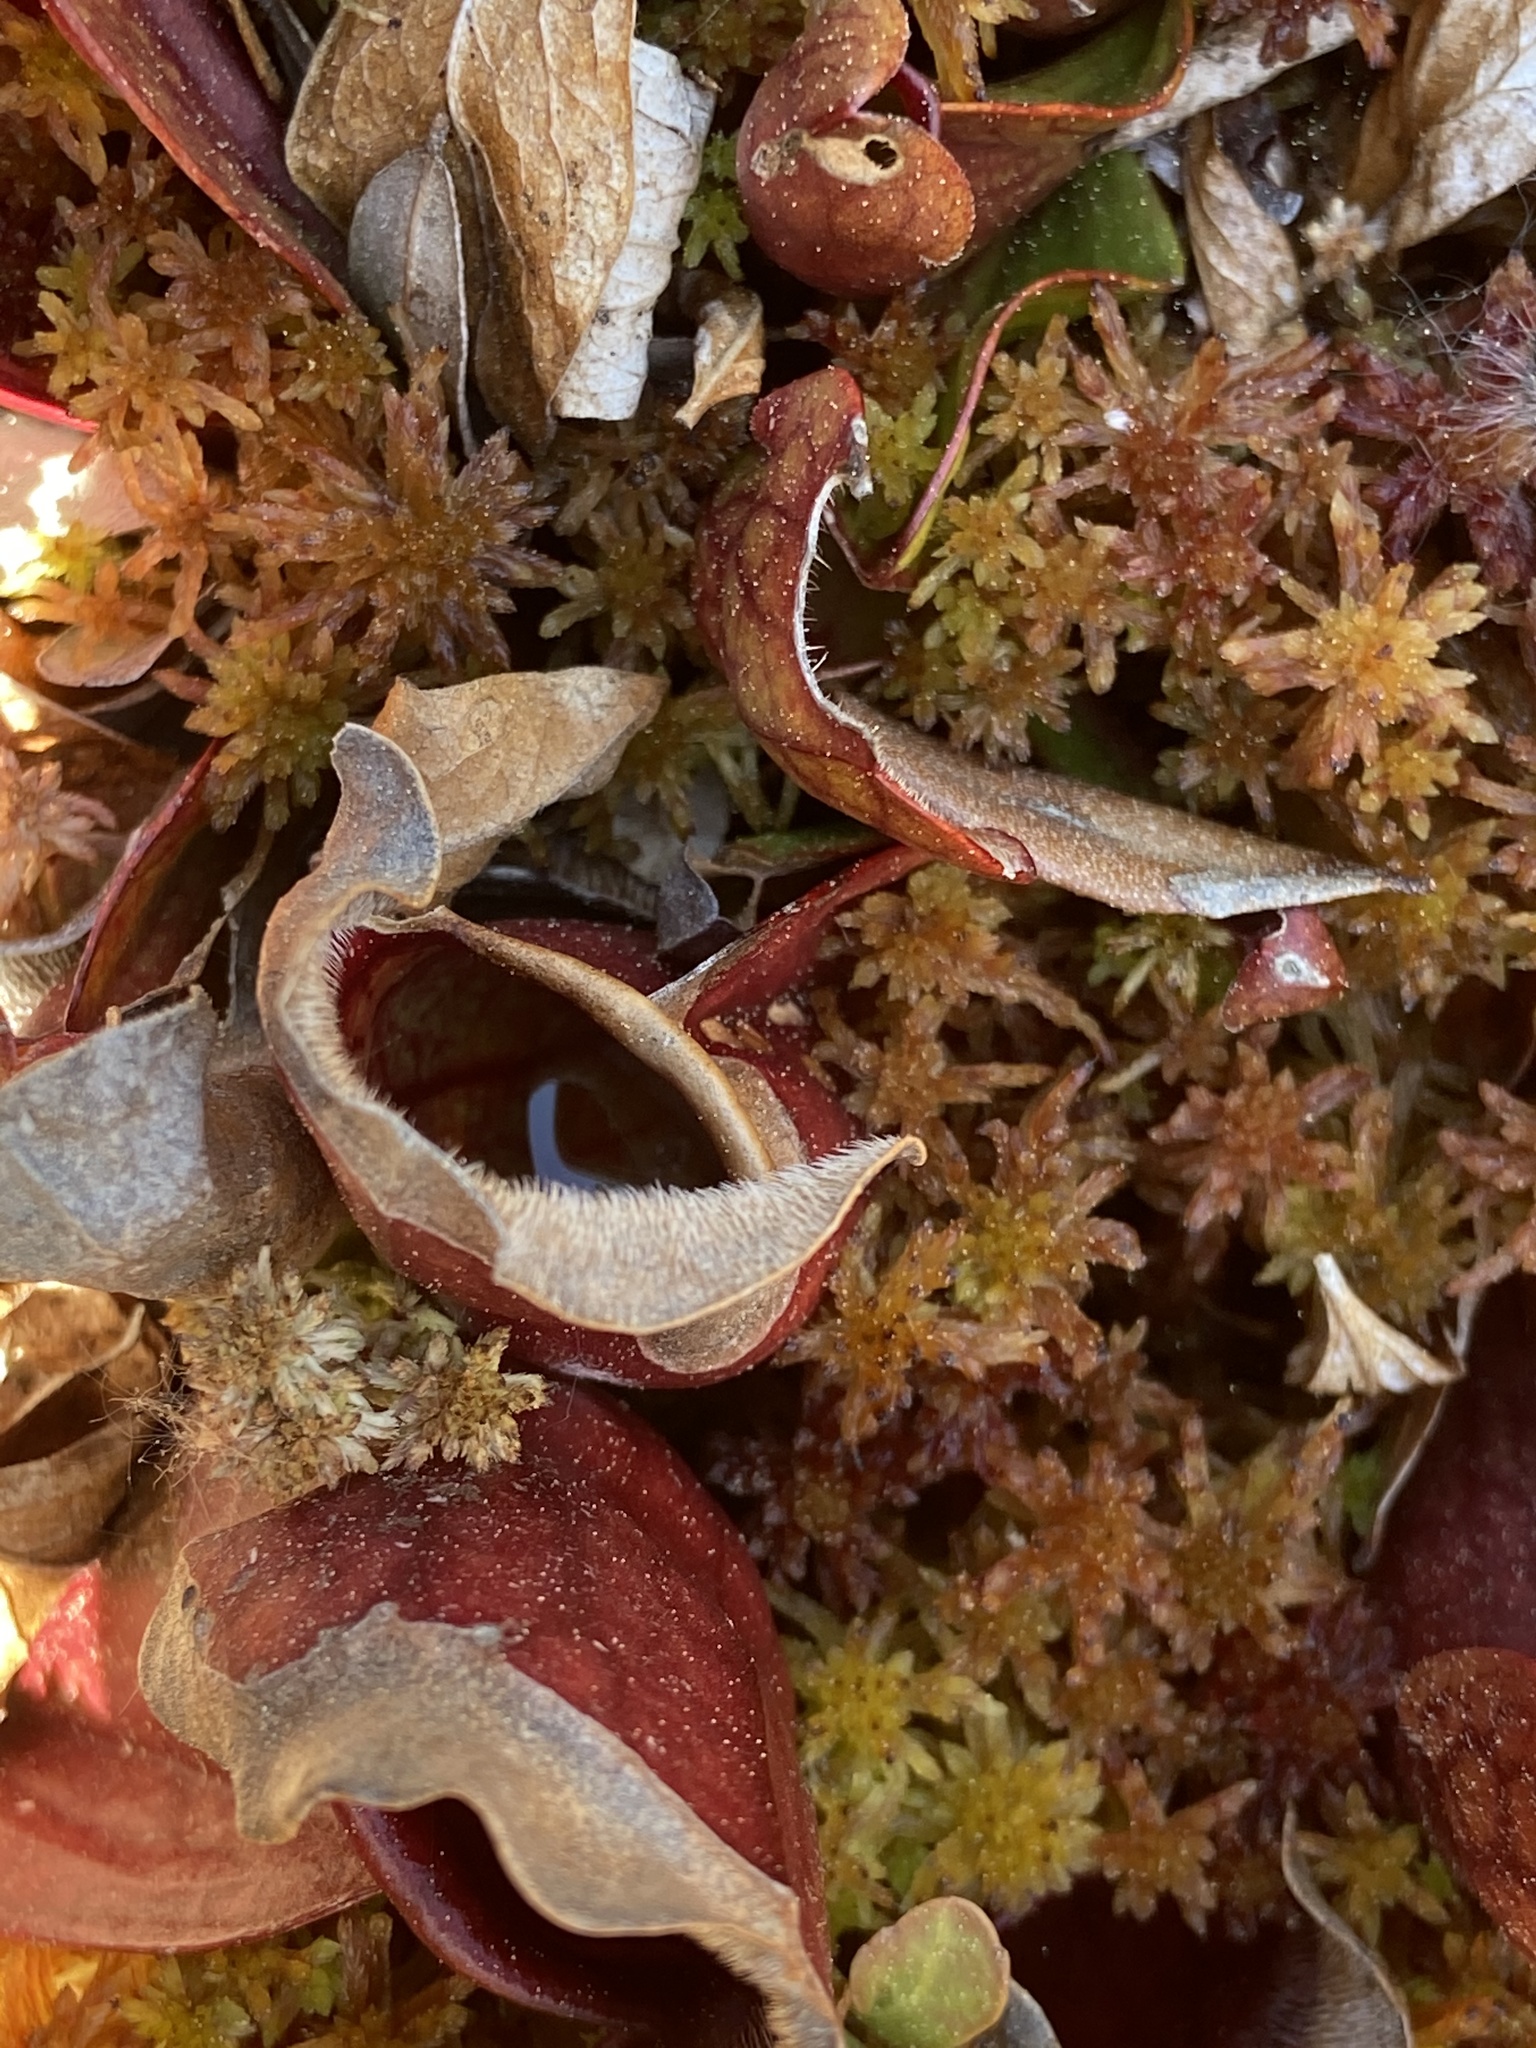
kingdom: Plantae
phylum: Tracheophyta
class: Magnoliopsida
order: Ericales
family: Sarraceniaceae
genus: Sarracenia
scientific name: Sarracenia purpurea
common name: Pitcherplant
